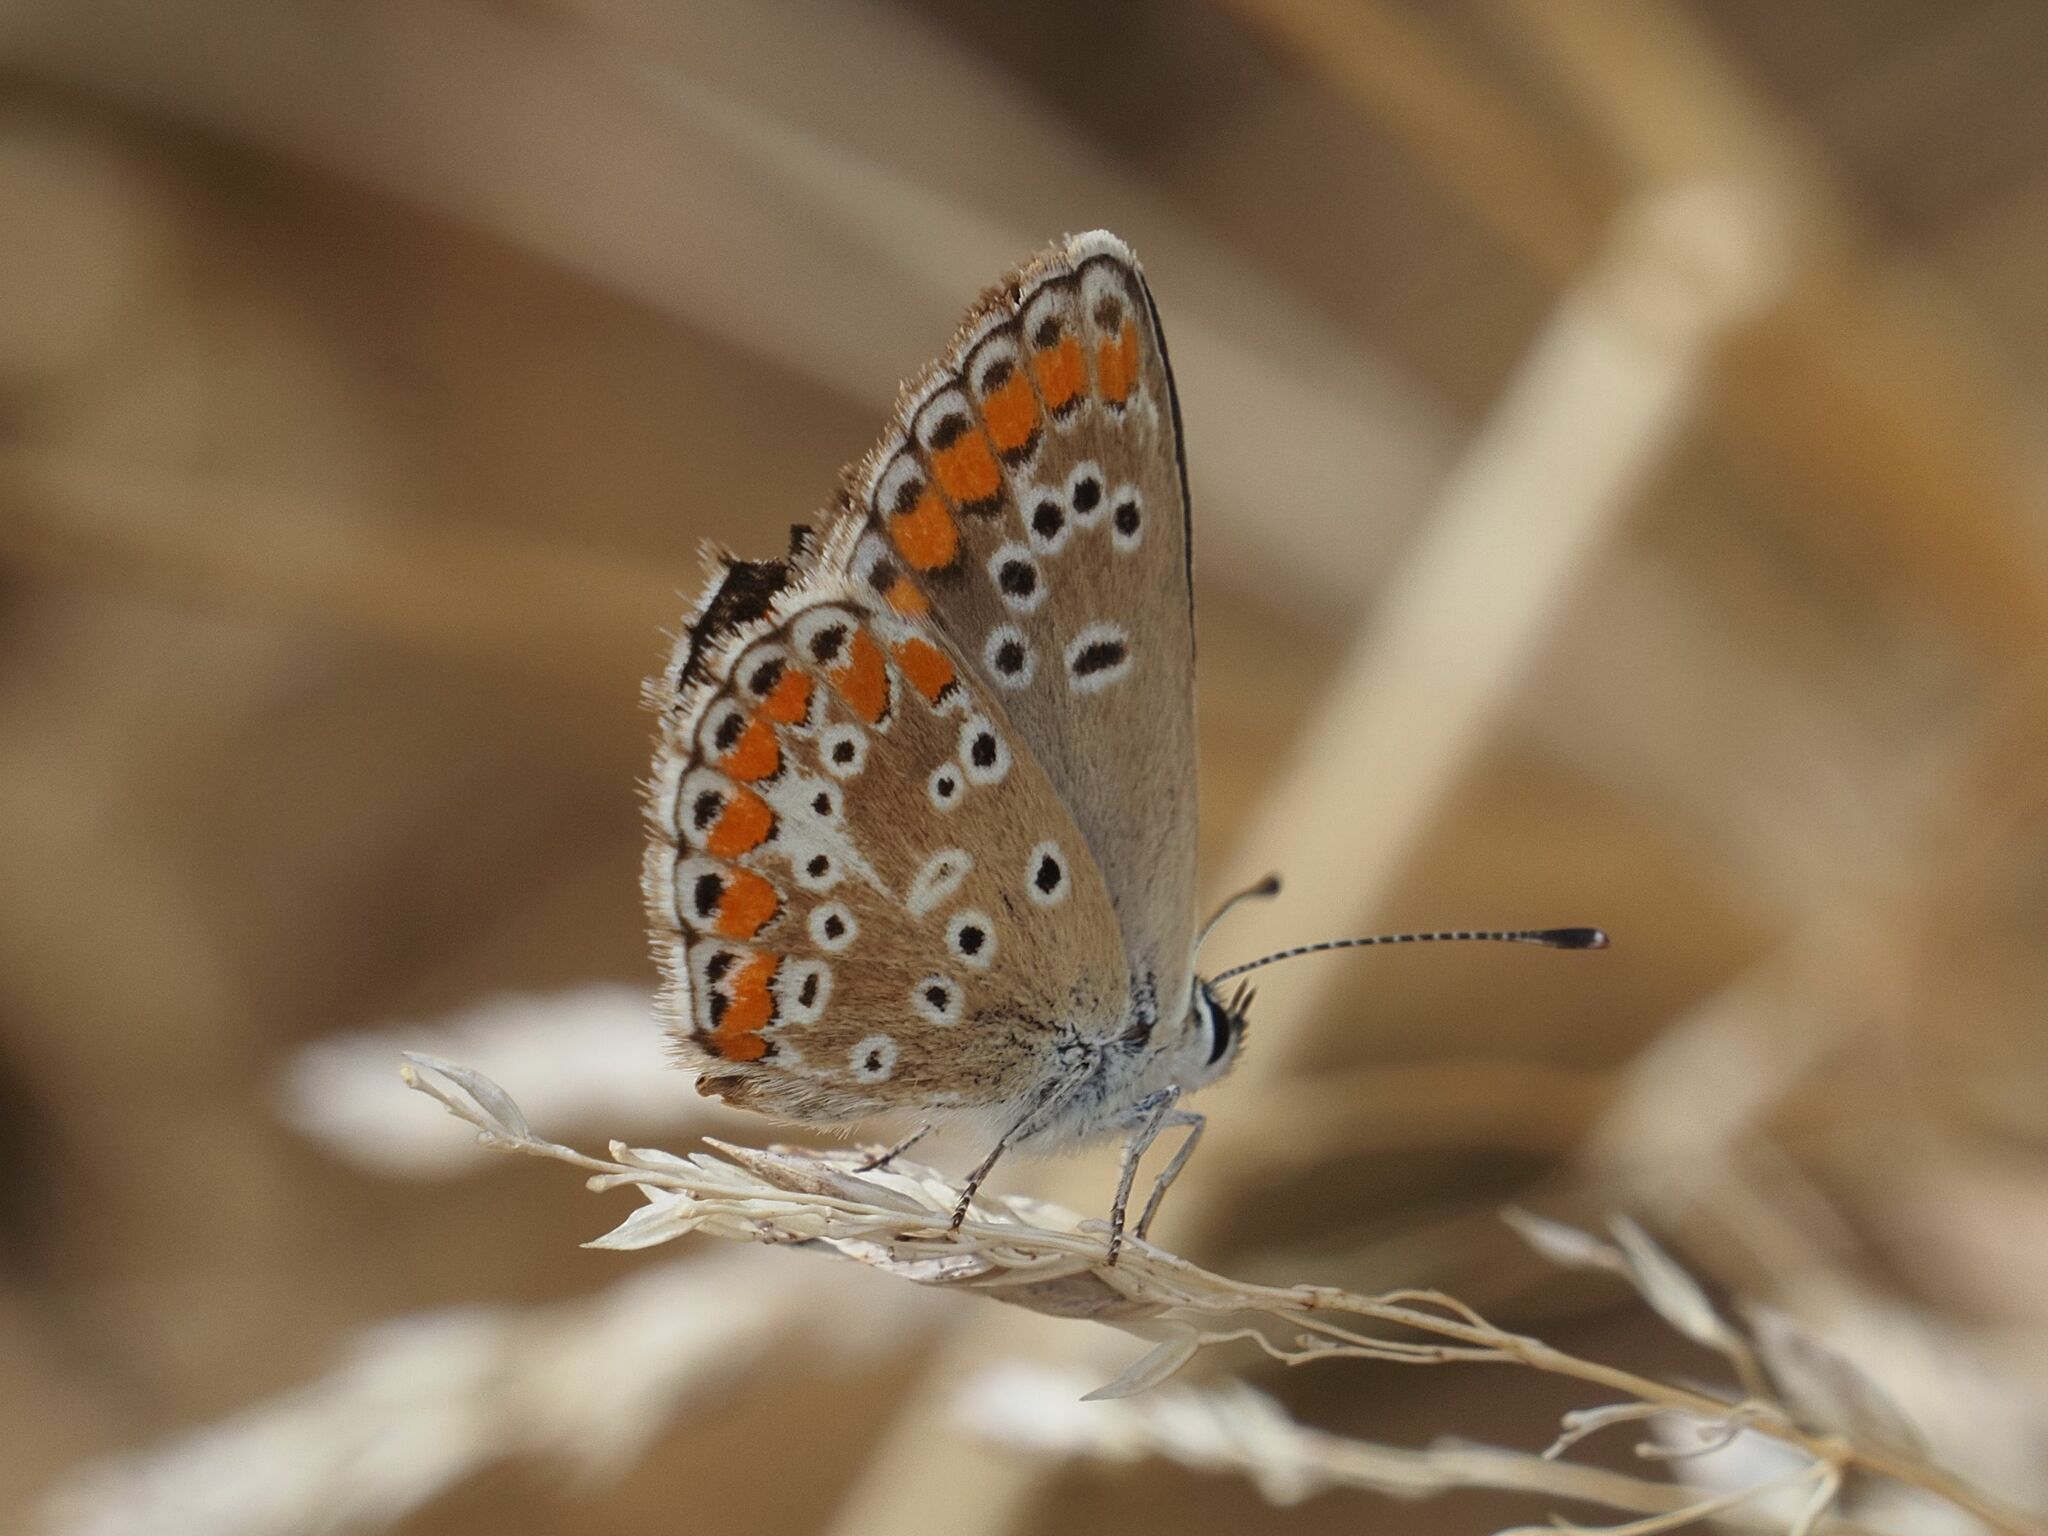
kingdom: Animalia
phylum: Arthropoda
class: Insecta
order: Lepidoptera
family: Lycaenidae
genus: Aricia
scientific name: Aricia agestis
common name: Brown argus
